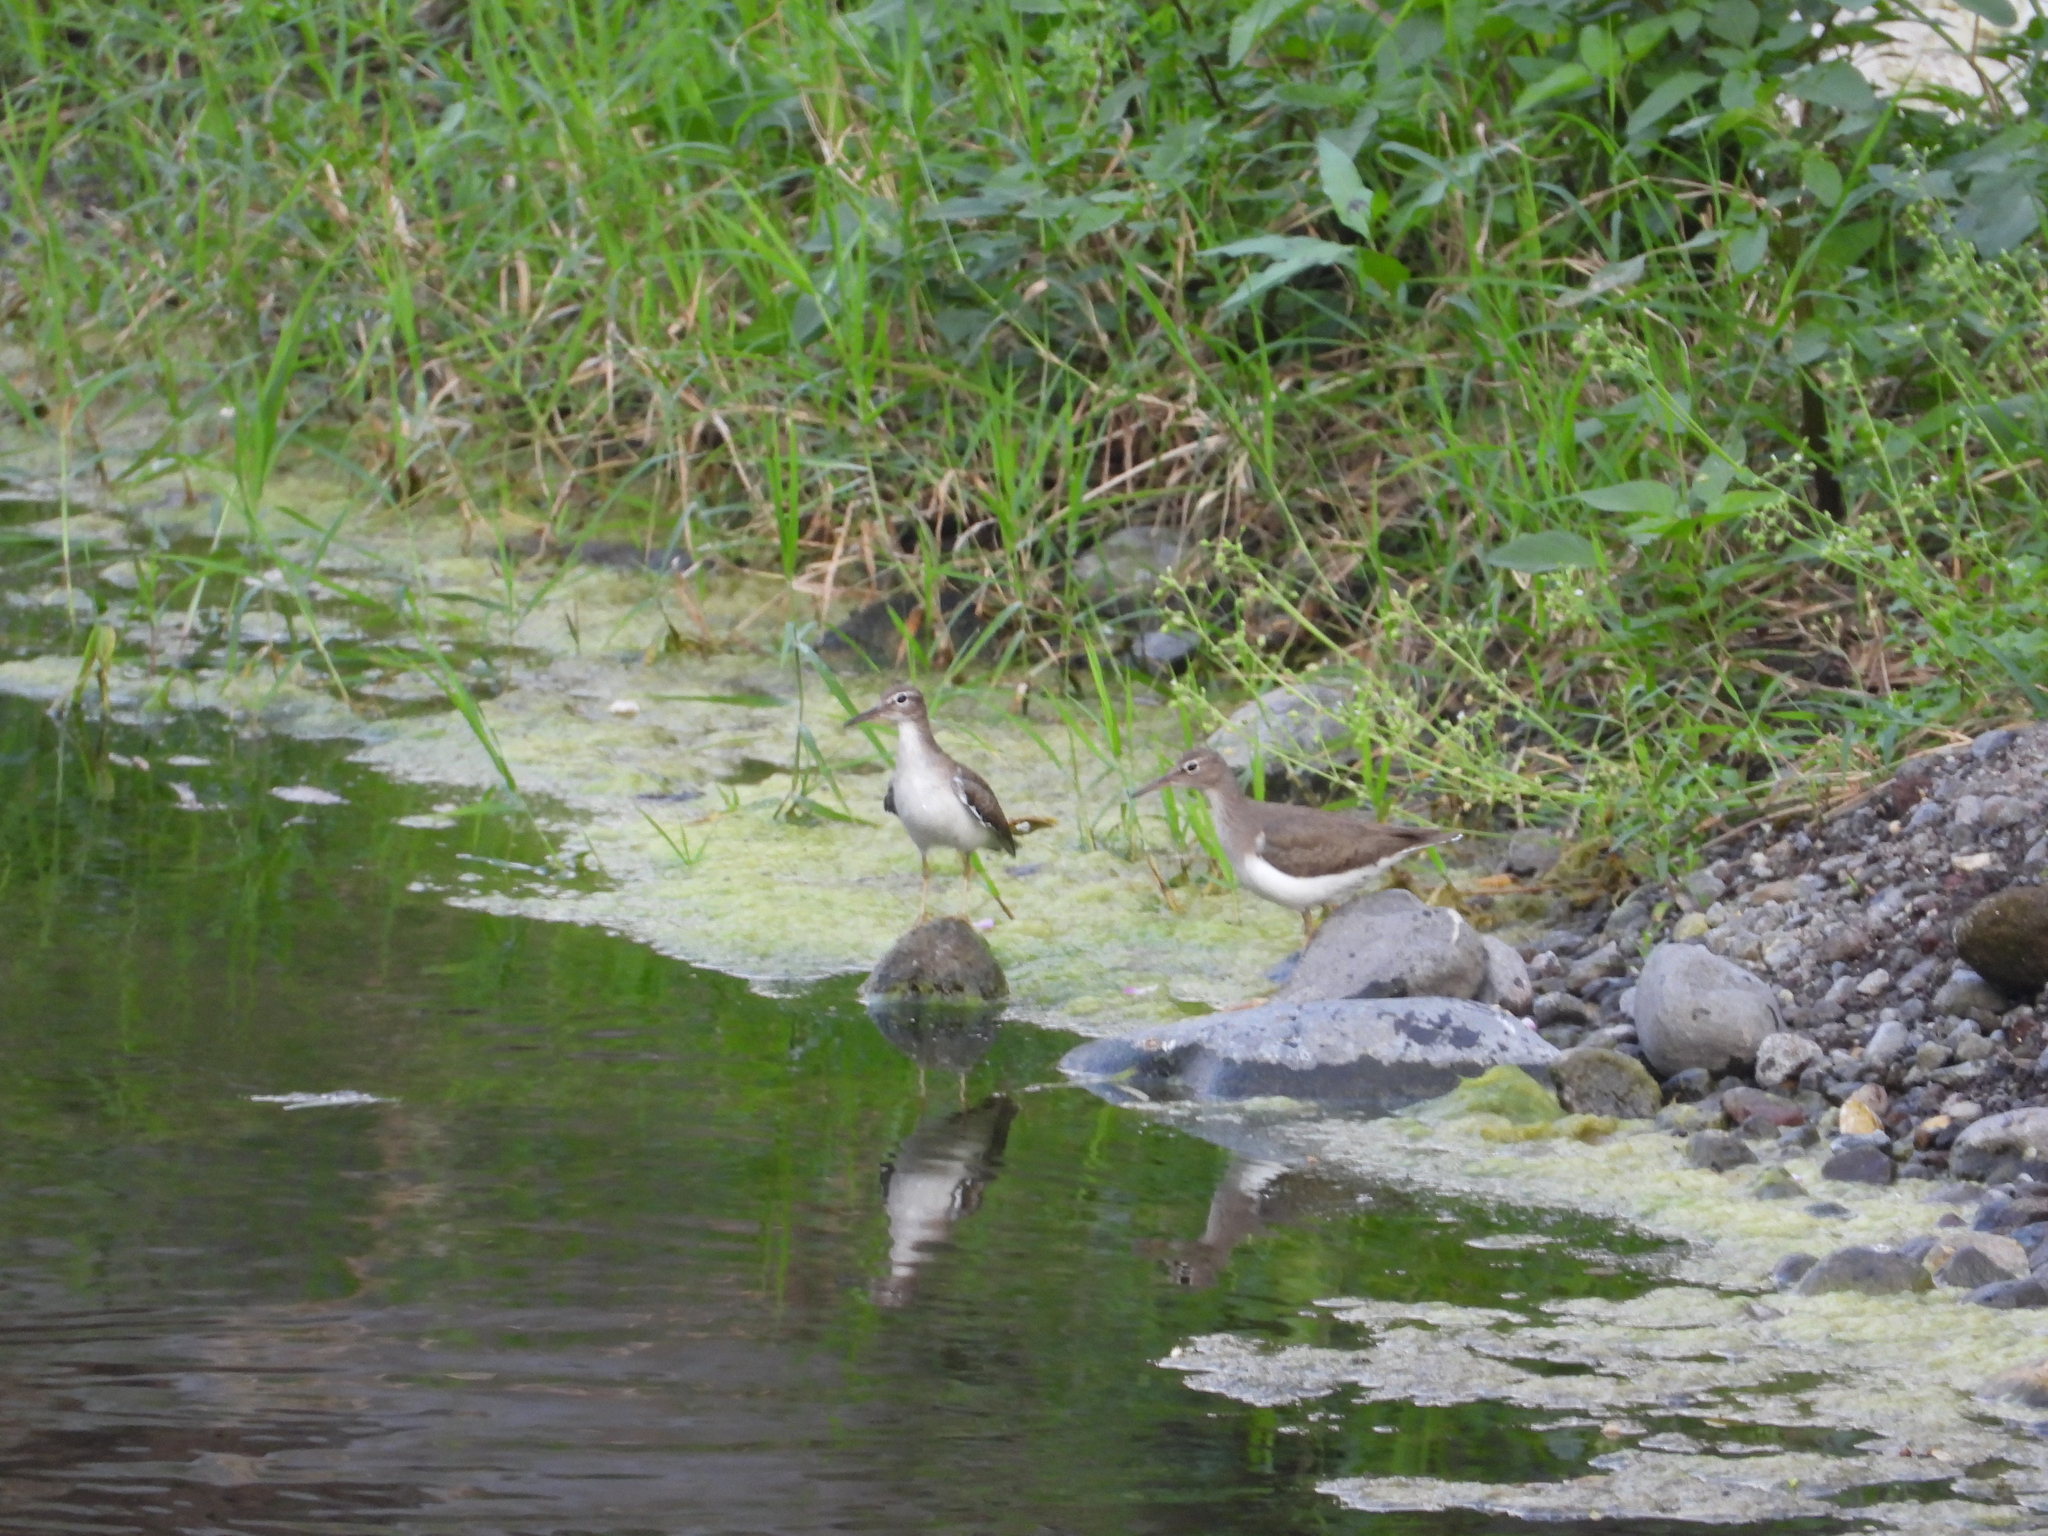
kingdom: Animalia
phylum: Chordata
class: Aves
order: Charadriiformes
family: Scolopacidae
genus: Actitis
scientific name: Actitis macularius
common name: Spotted sandpiper
